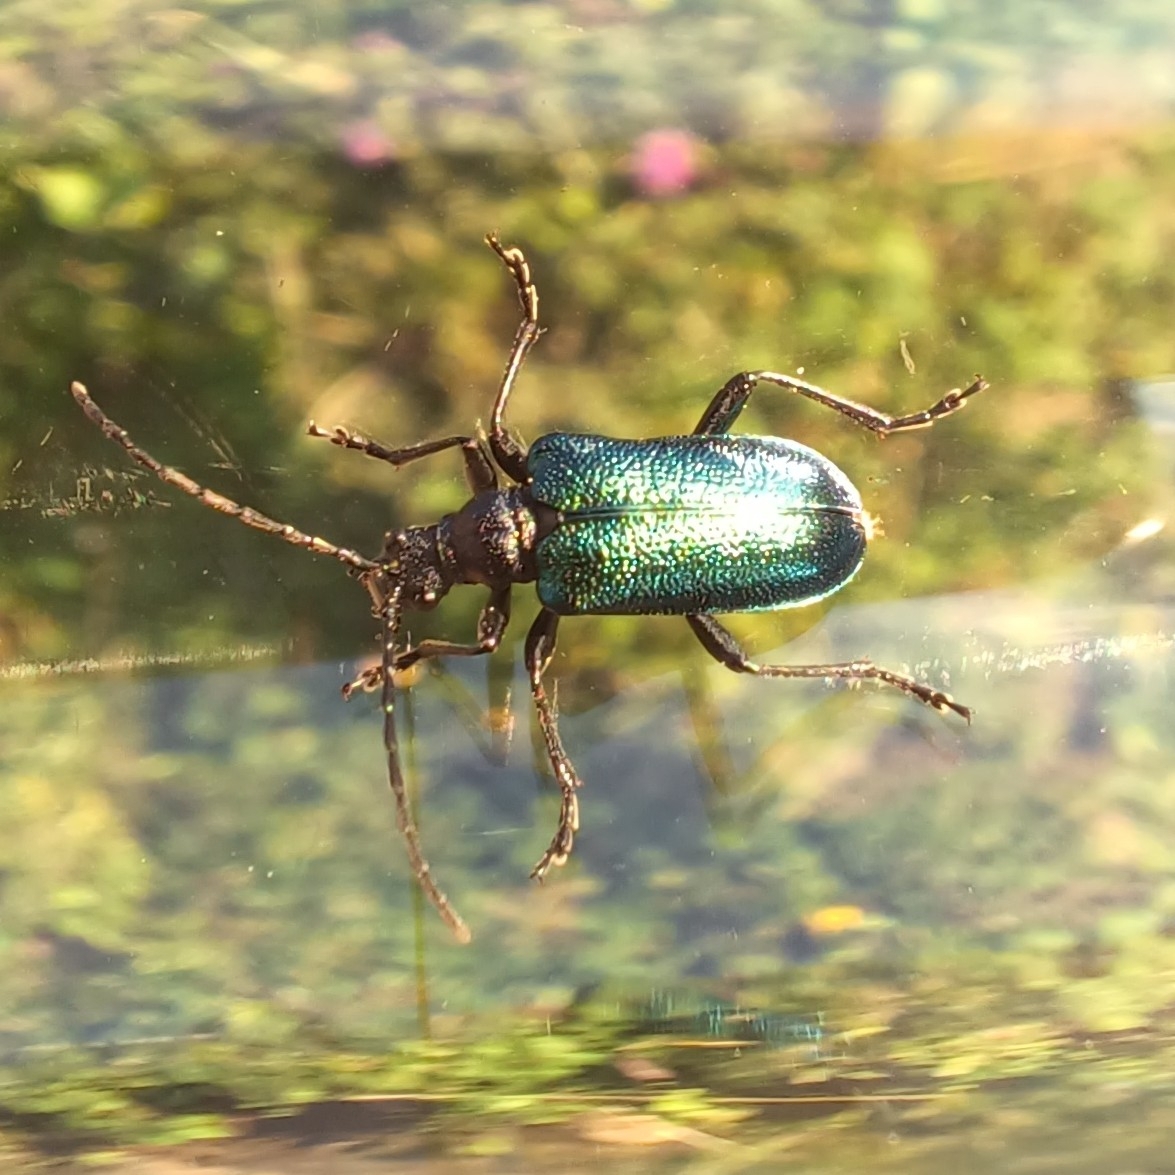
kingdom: Animalia
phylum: Arthropoda
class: Insecta
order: Coleoptera
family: Cerambycidae
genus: Gaurotes
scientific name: Gaurotes virginea
